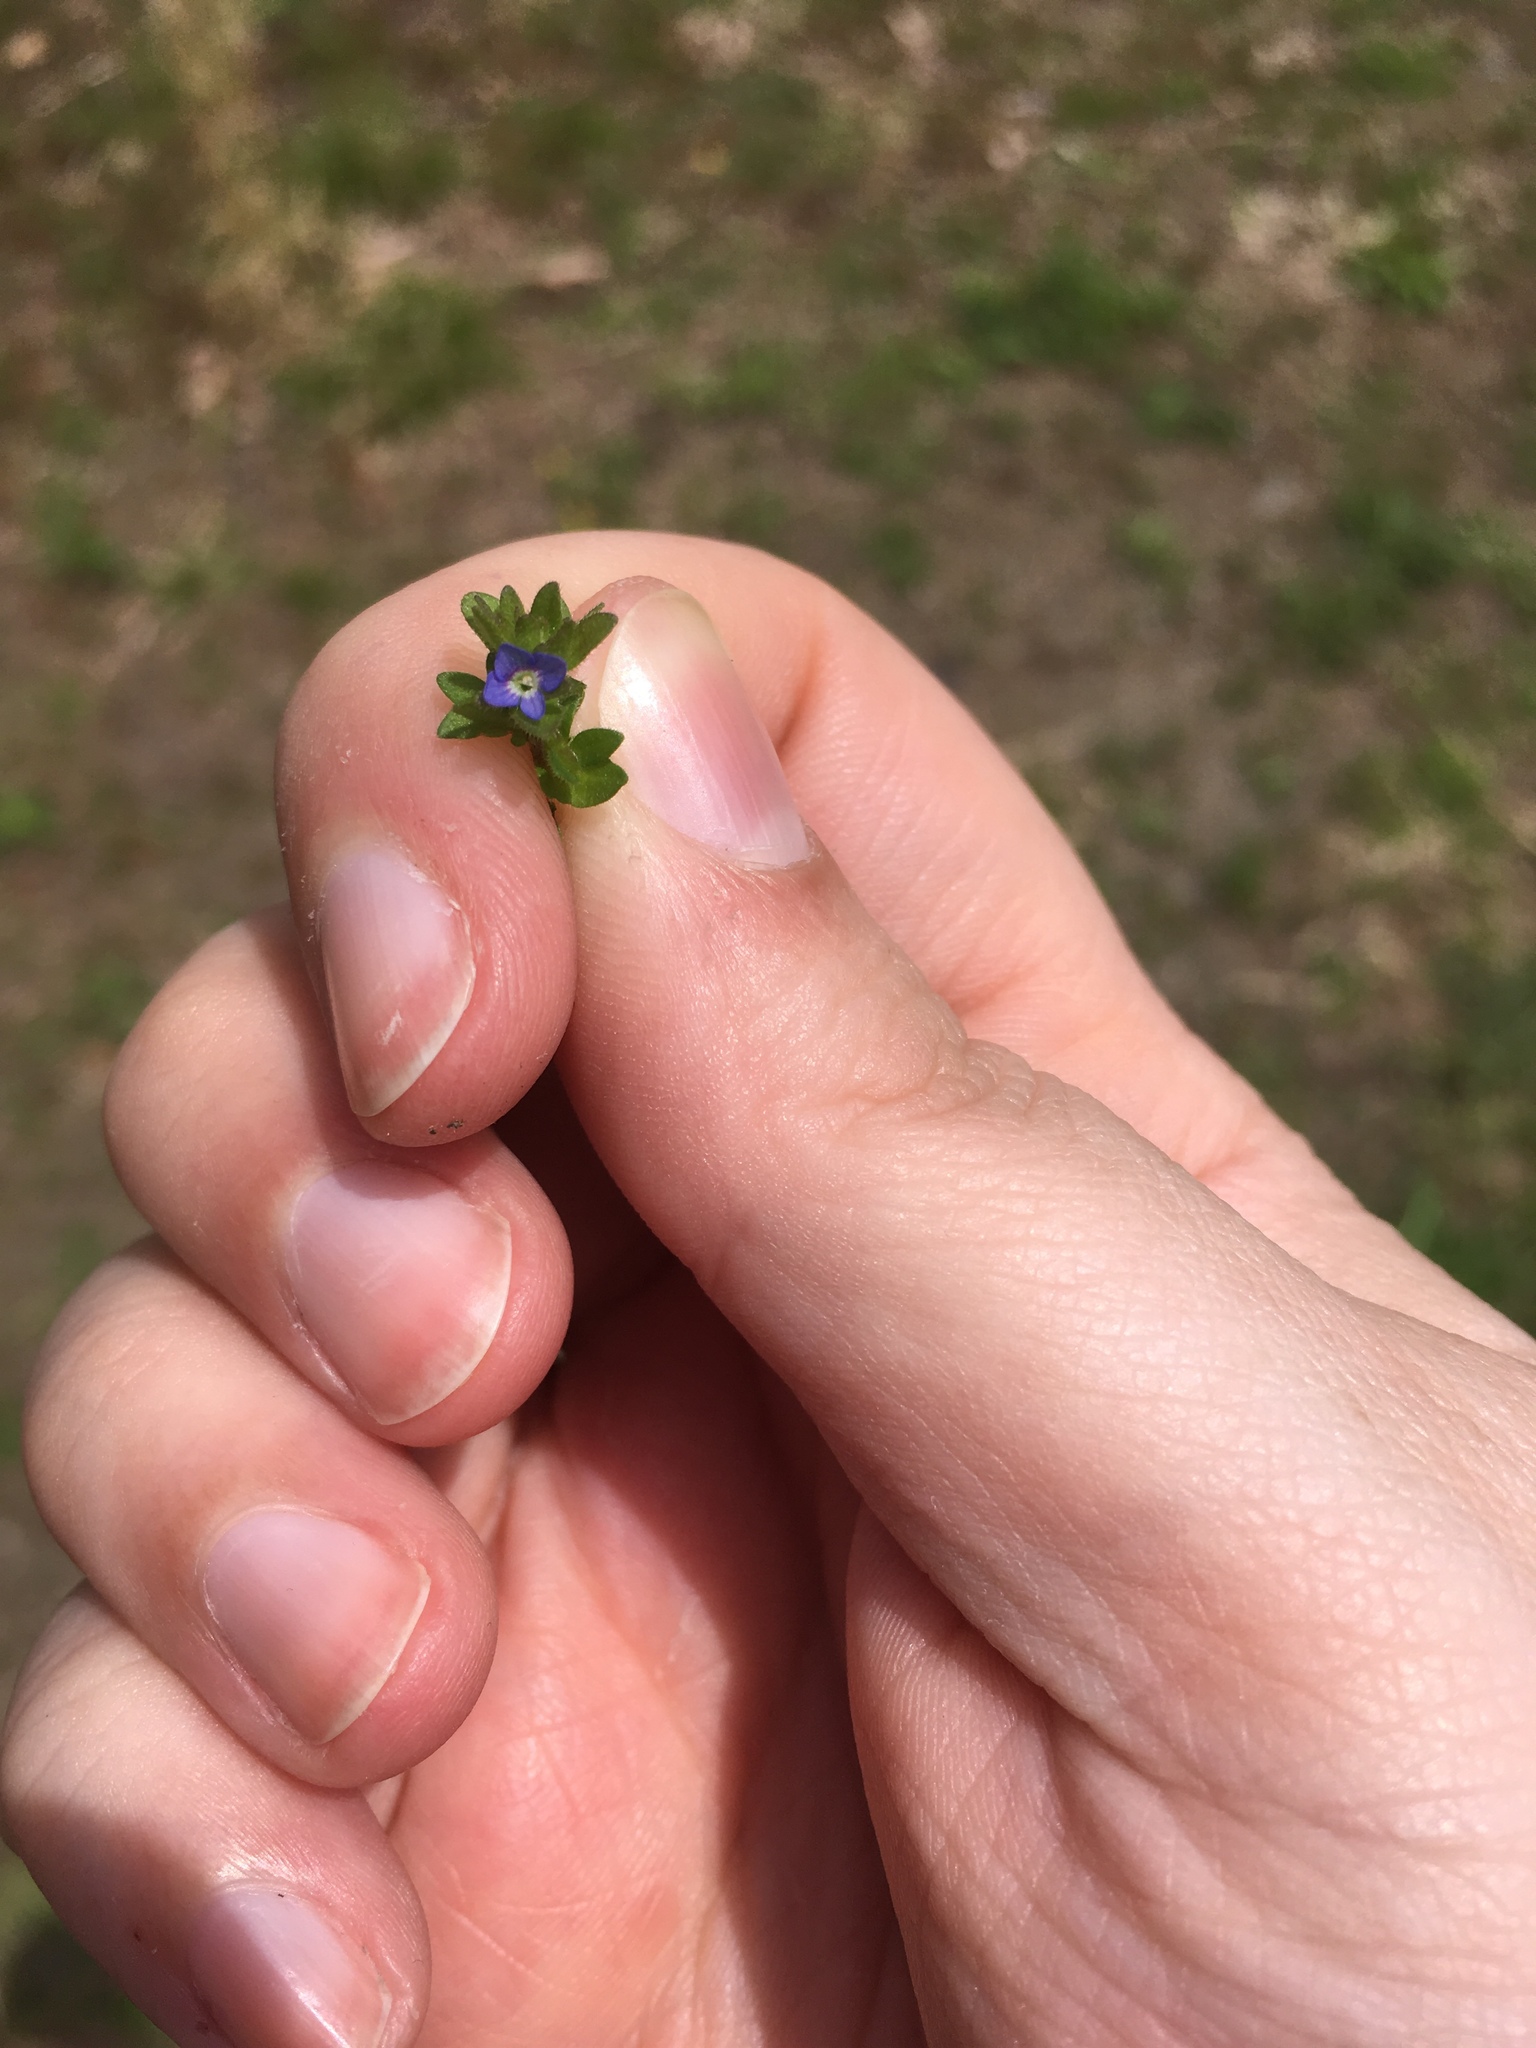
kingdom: Plantae
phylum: Tracheophyta
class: Magnoliopsida
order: Lamiales
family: Plantaginaceae
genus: Veronica
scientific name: Veronica arvensis
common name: Corn speedwell
